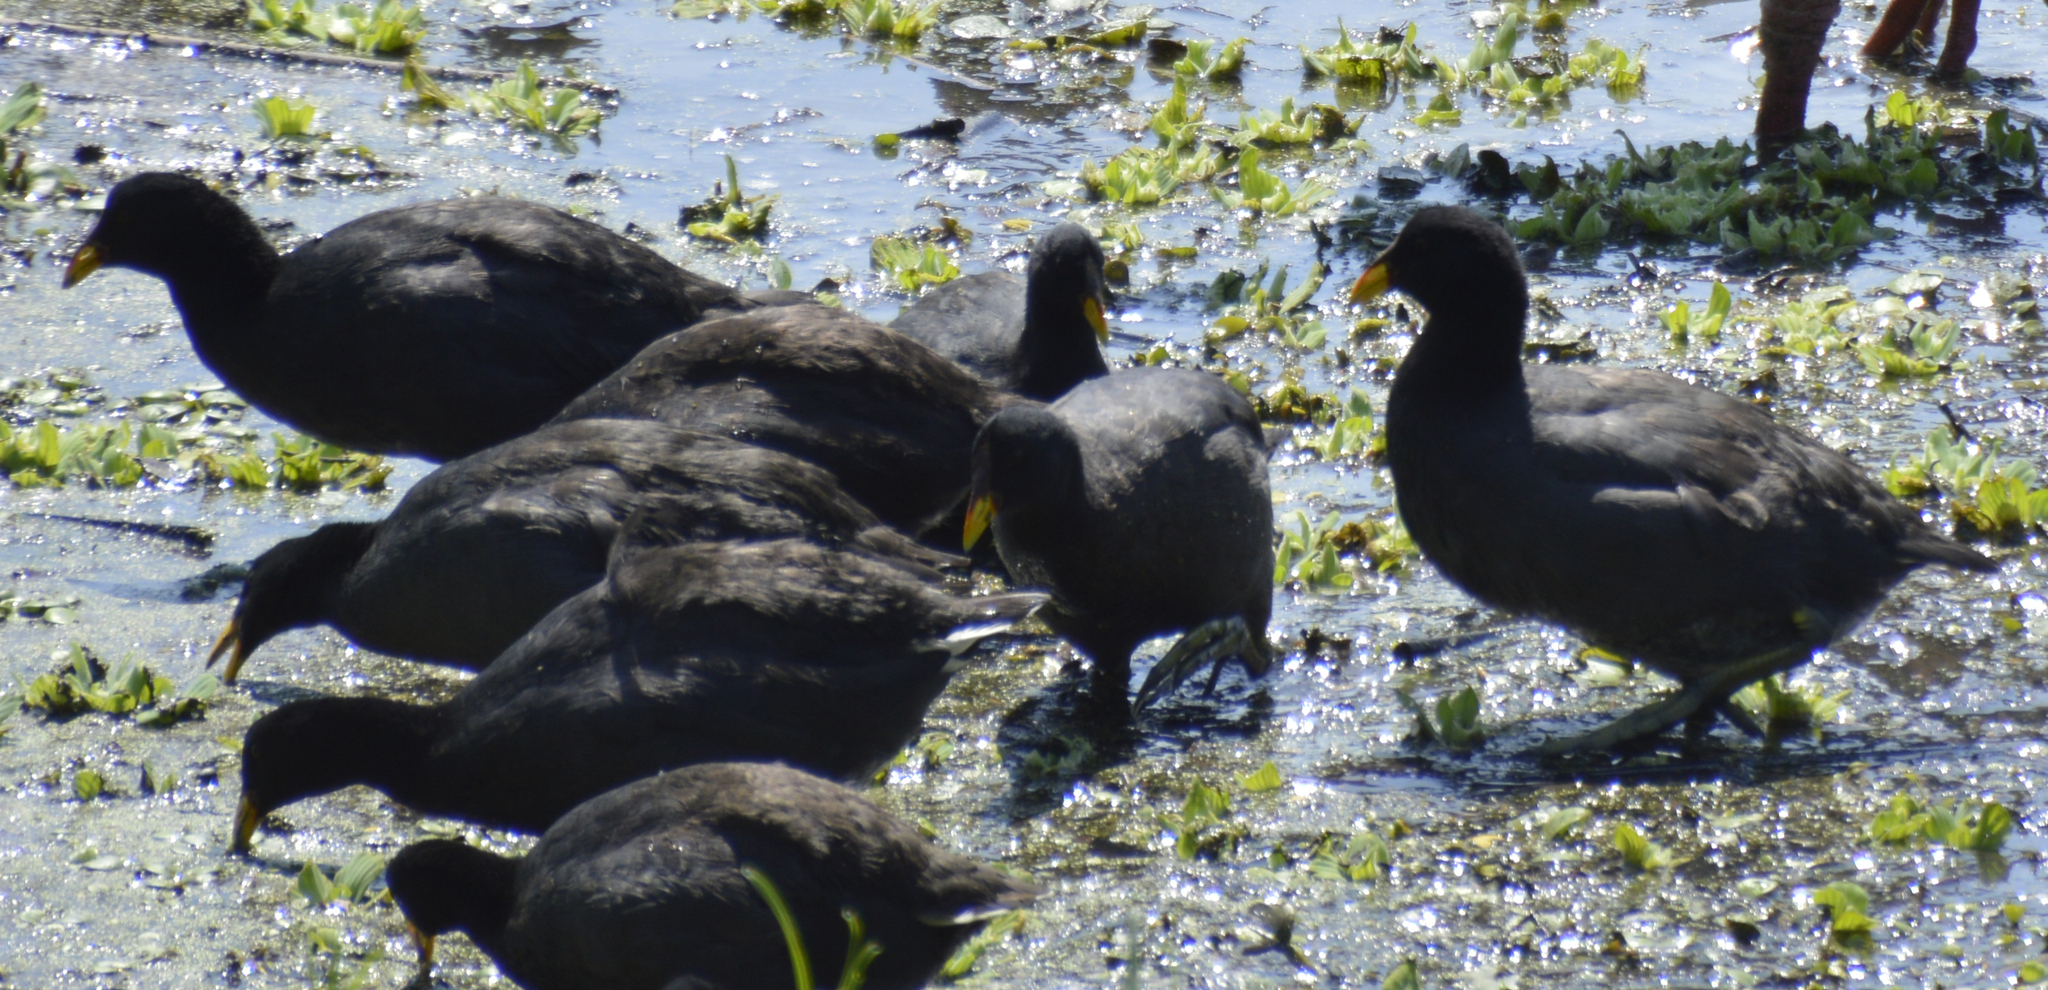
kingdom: Animalia
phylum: Chordata
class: Aves
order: Gruiformes
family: Rallidae
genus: Fulica
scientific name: Fulica rufifrons
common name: Red-fronted coot
